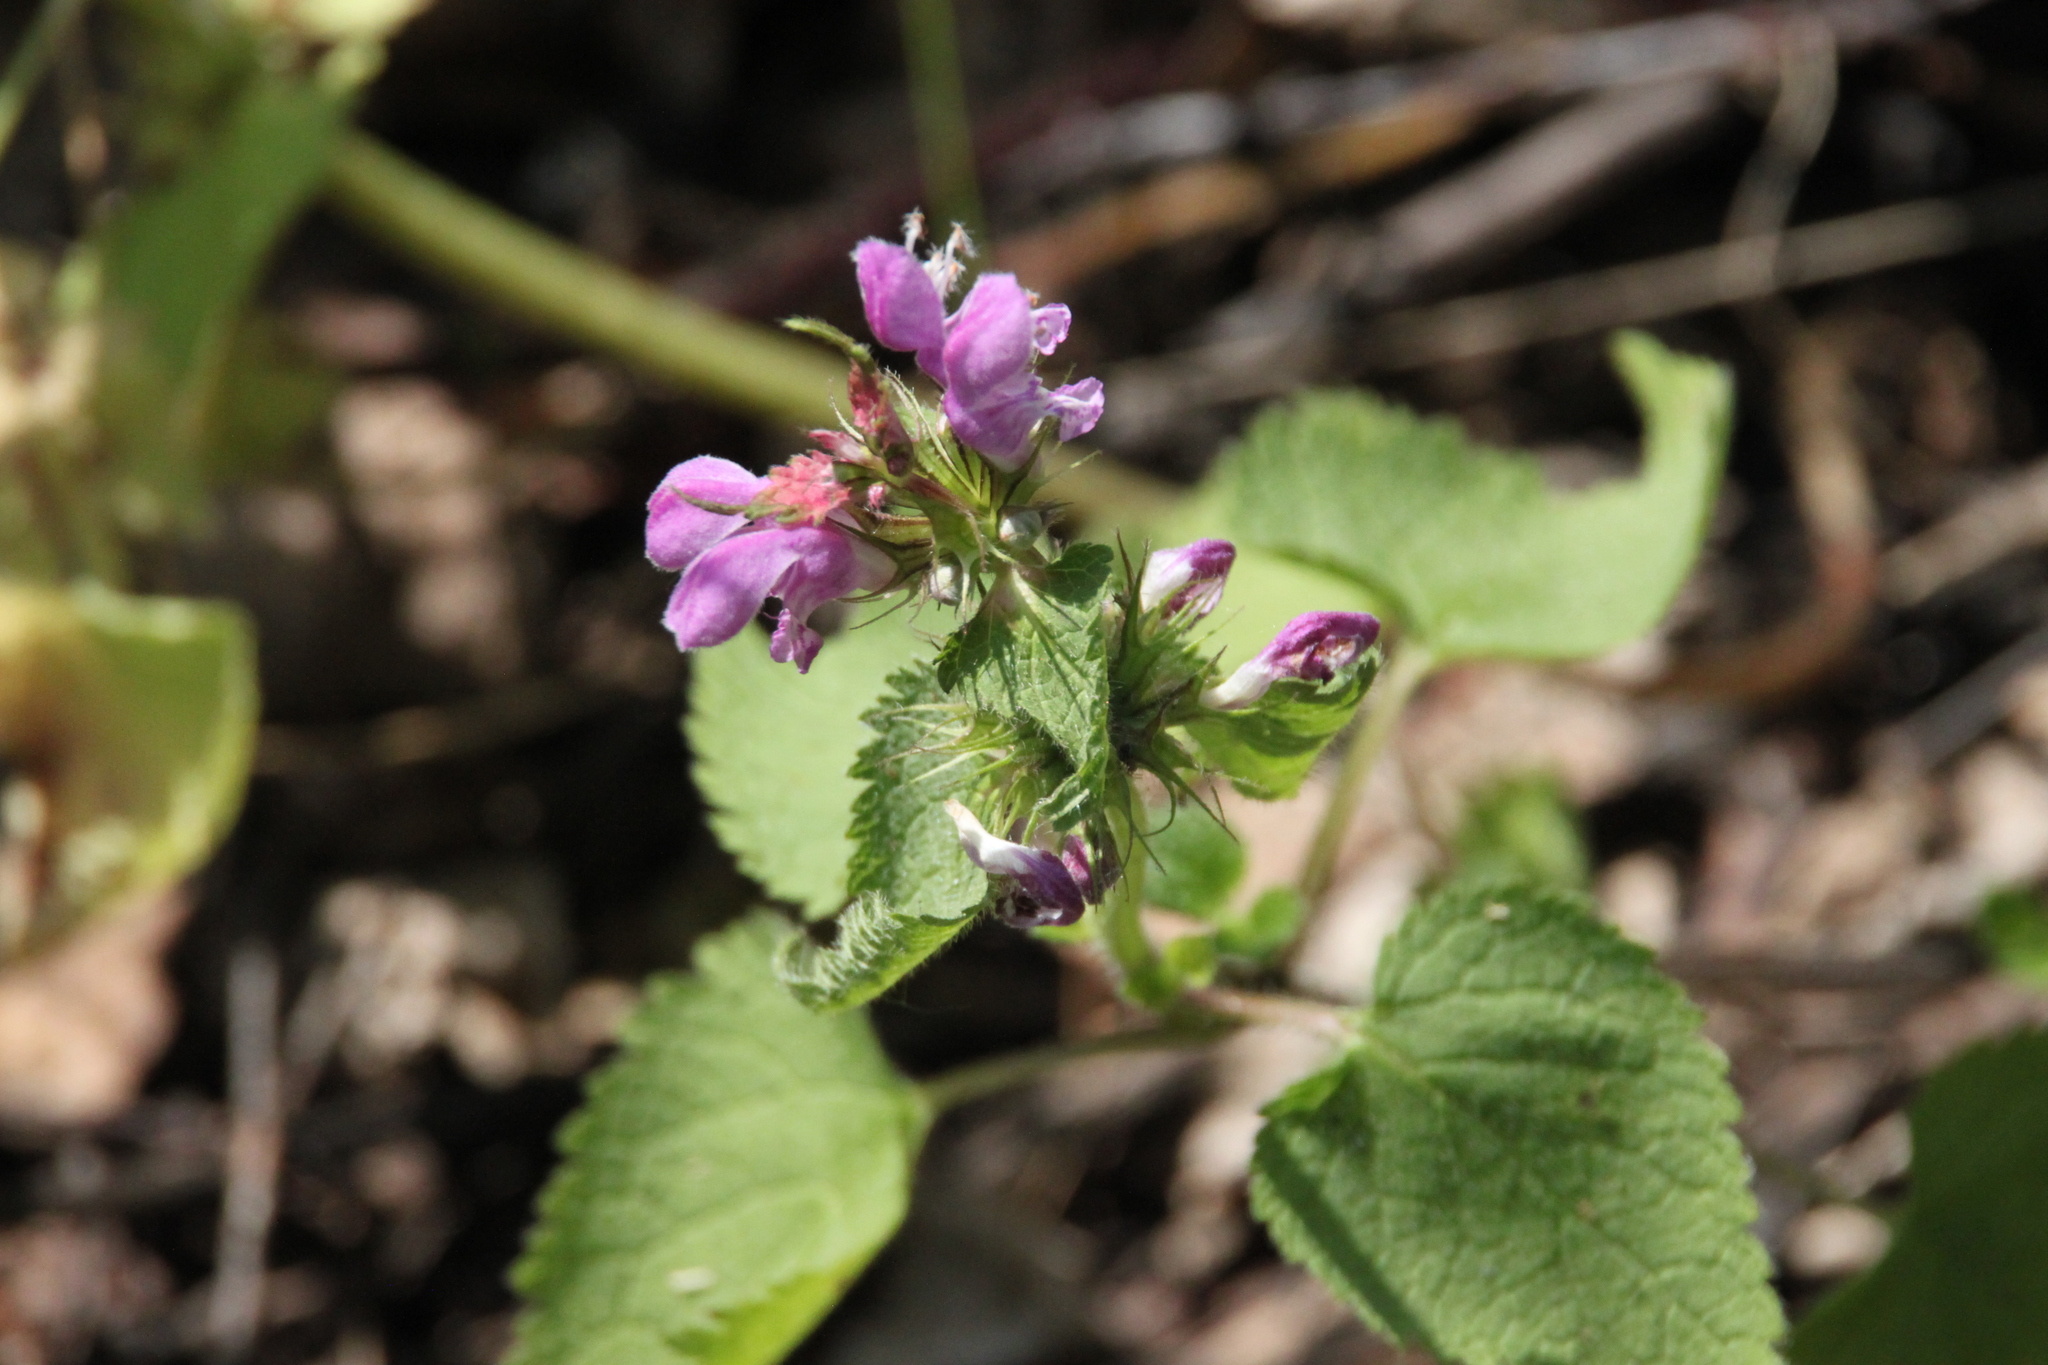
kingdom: Plantae
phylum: Tracheophyta
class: Magnoliopsida
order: Lamiales
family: Lamiaceae
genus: Lamium
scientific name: Lamium maculatum
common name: Spotted dead-nettle
